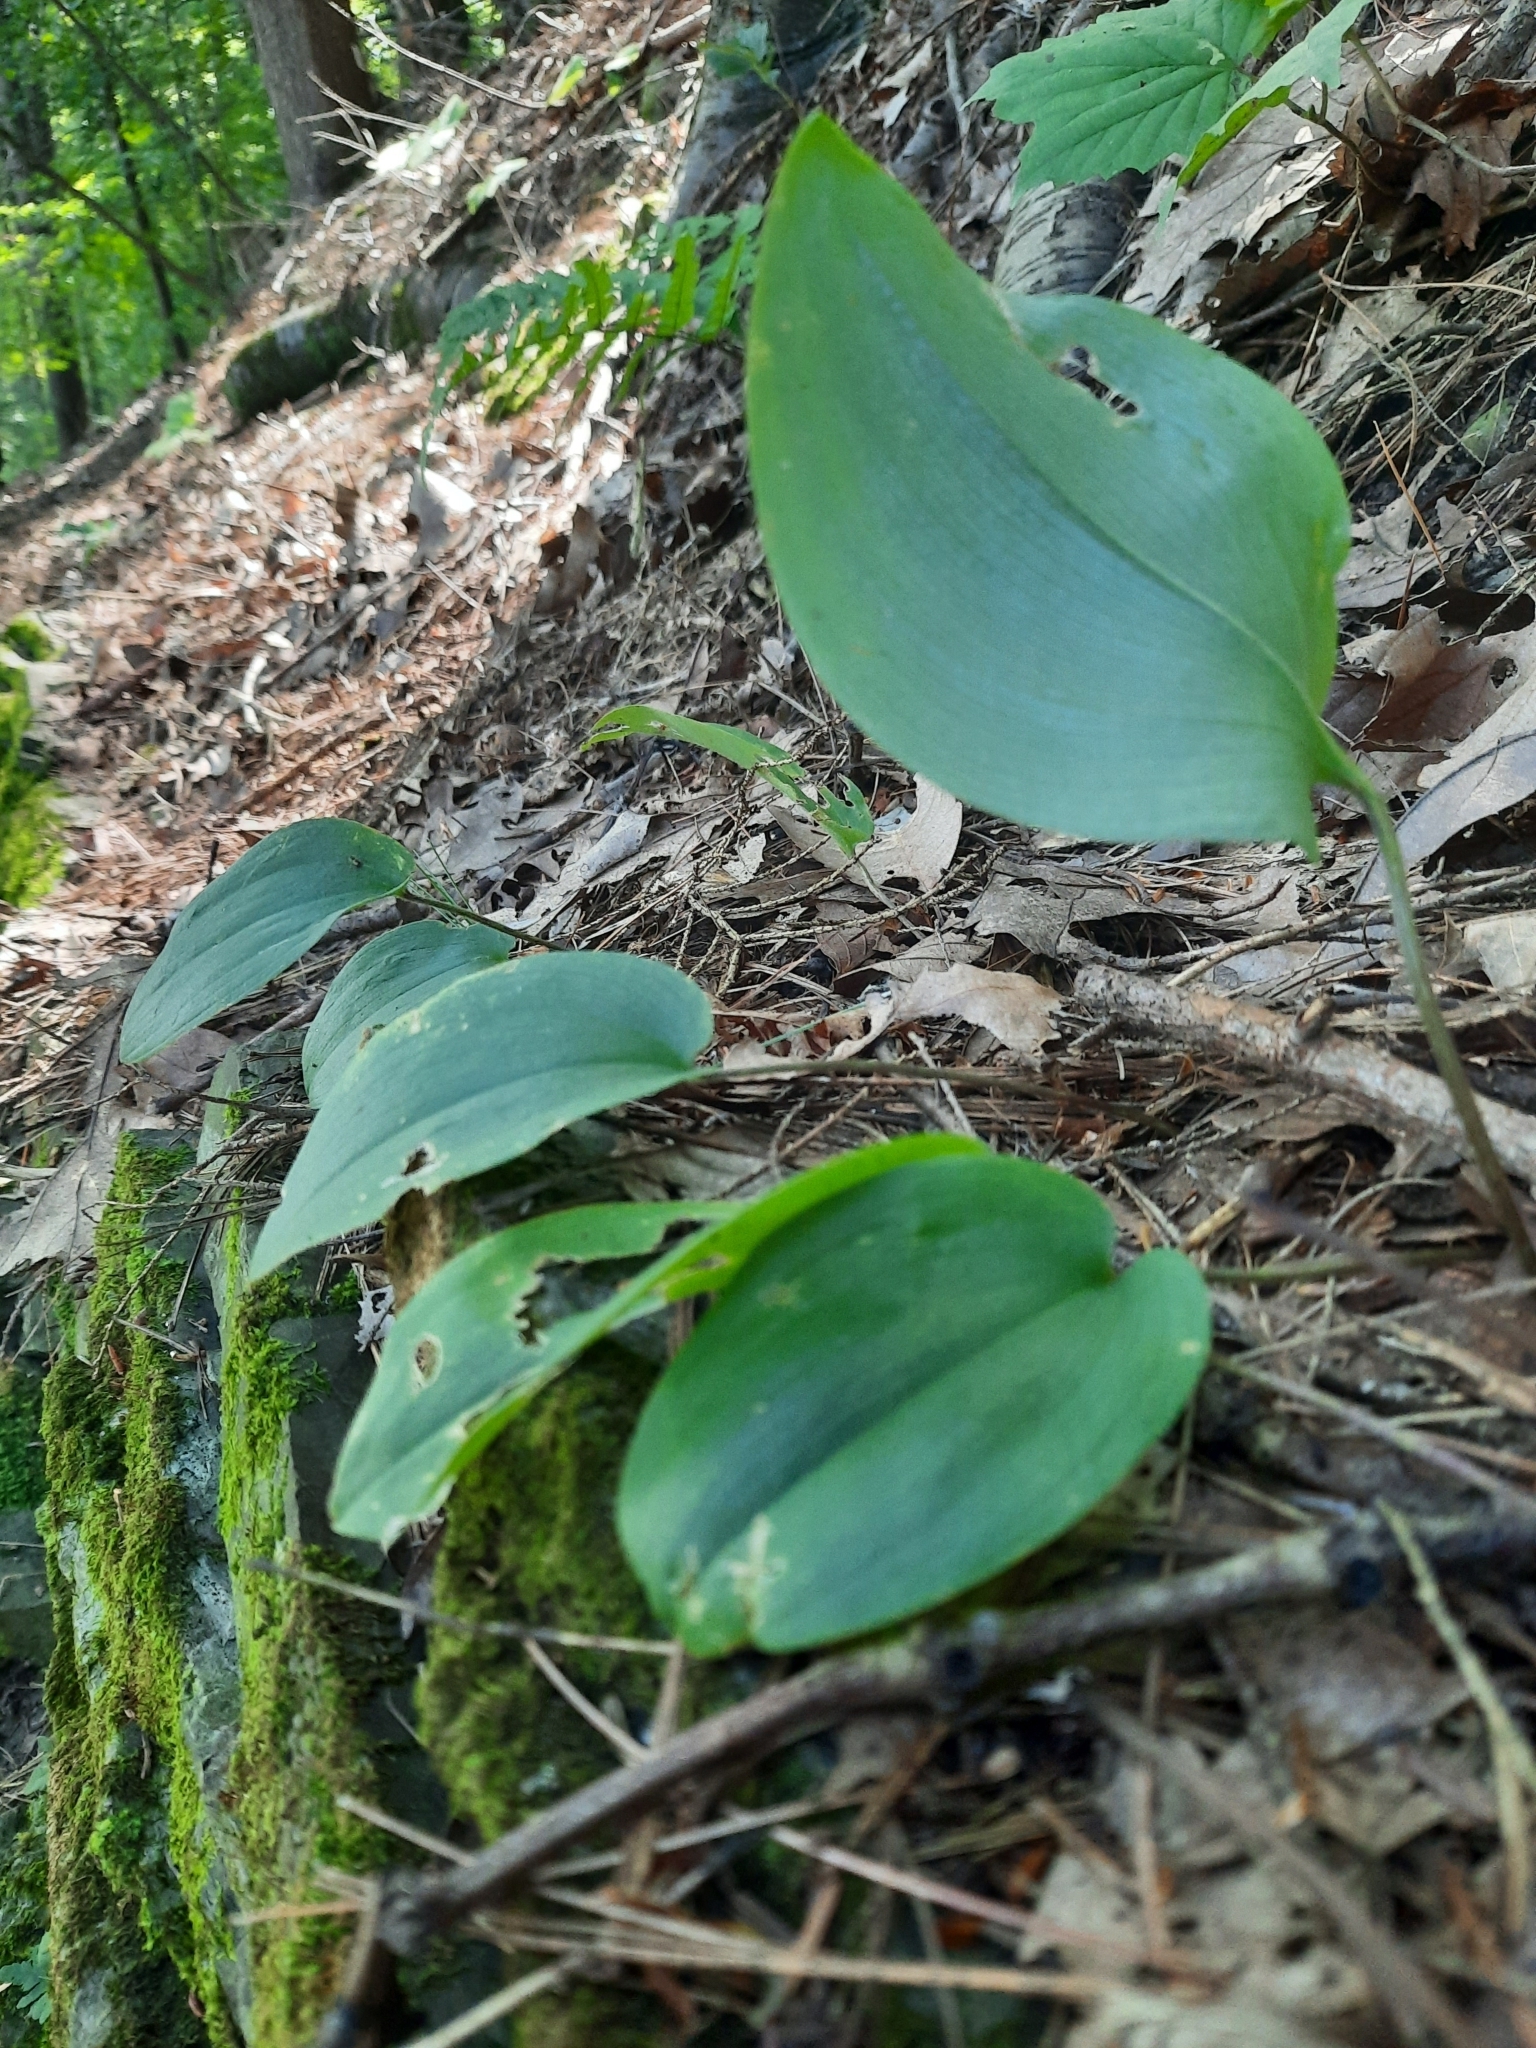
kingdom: Plantae
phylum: Tracheophyta
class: Liliopsida
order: Asparagales
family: Asparagaceae
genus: Maianthemum
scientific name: Maianthemum canadense
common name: False lily-of-the-valley
